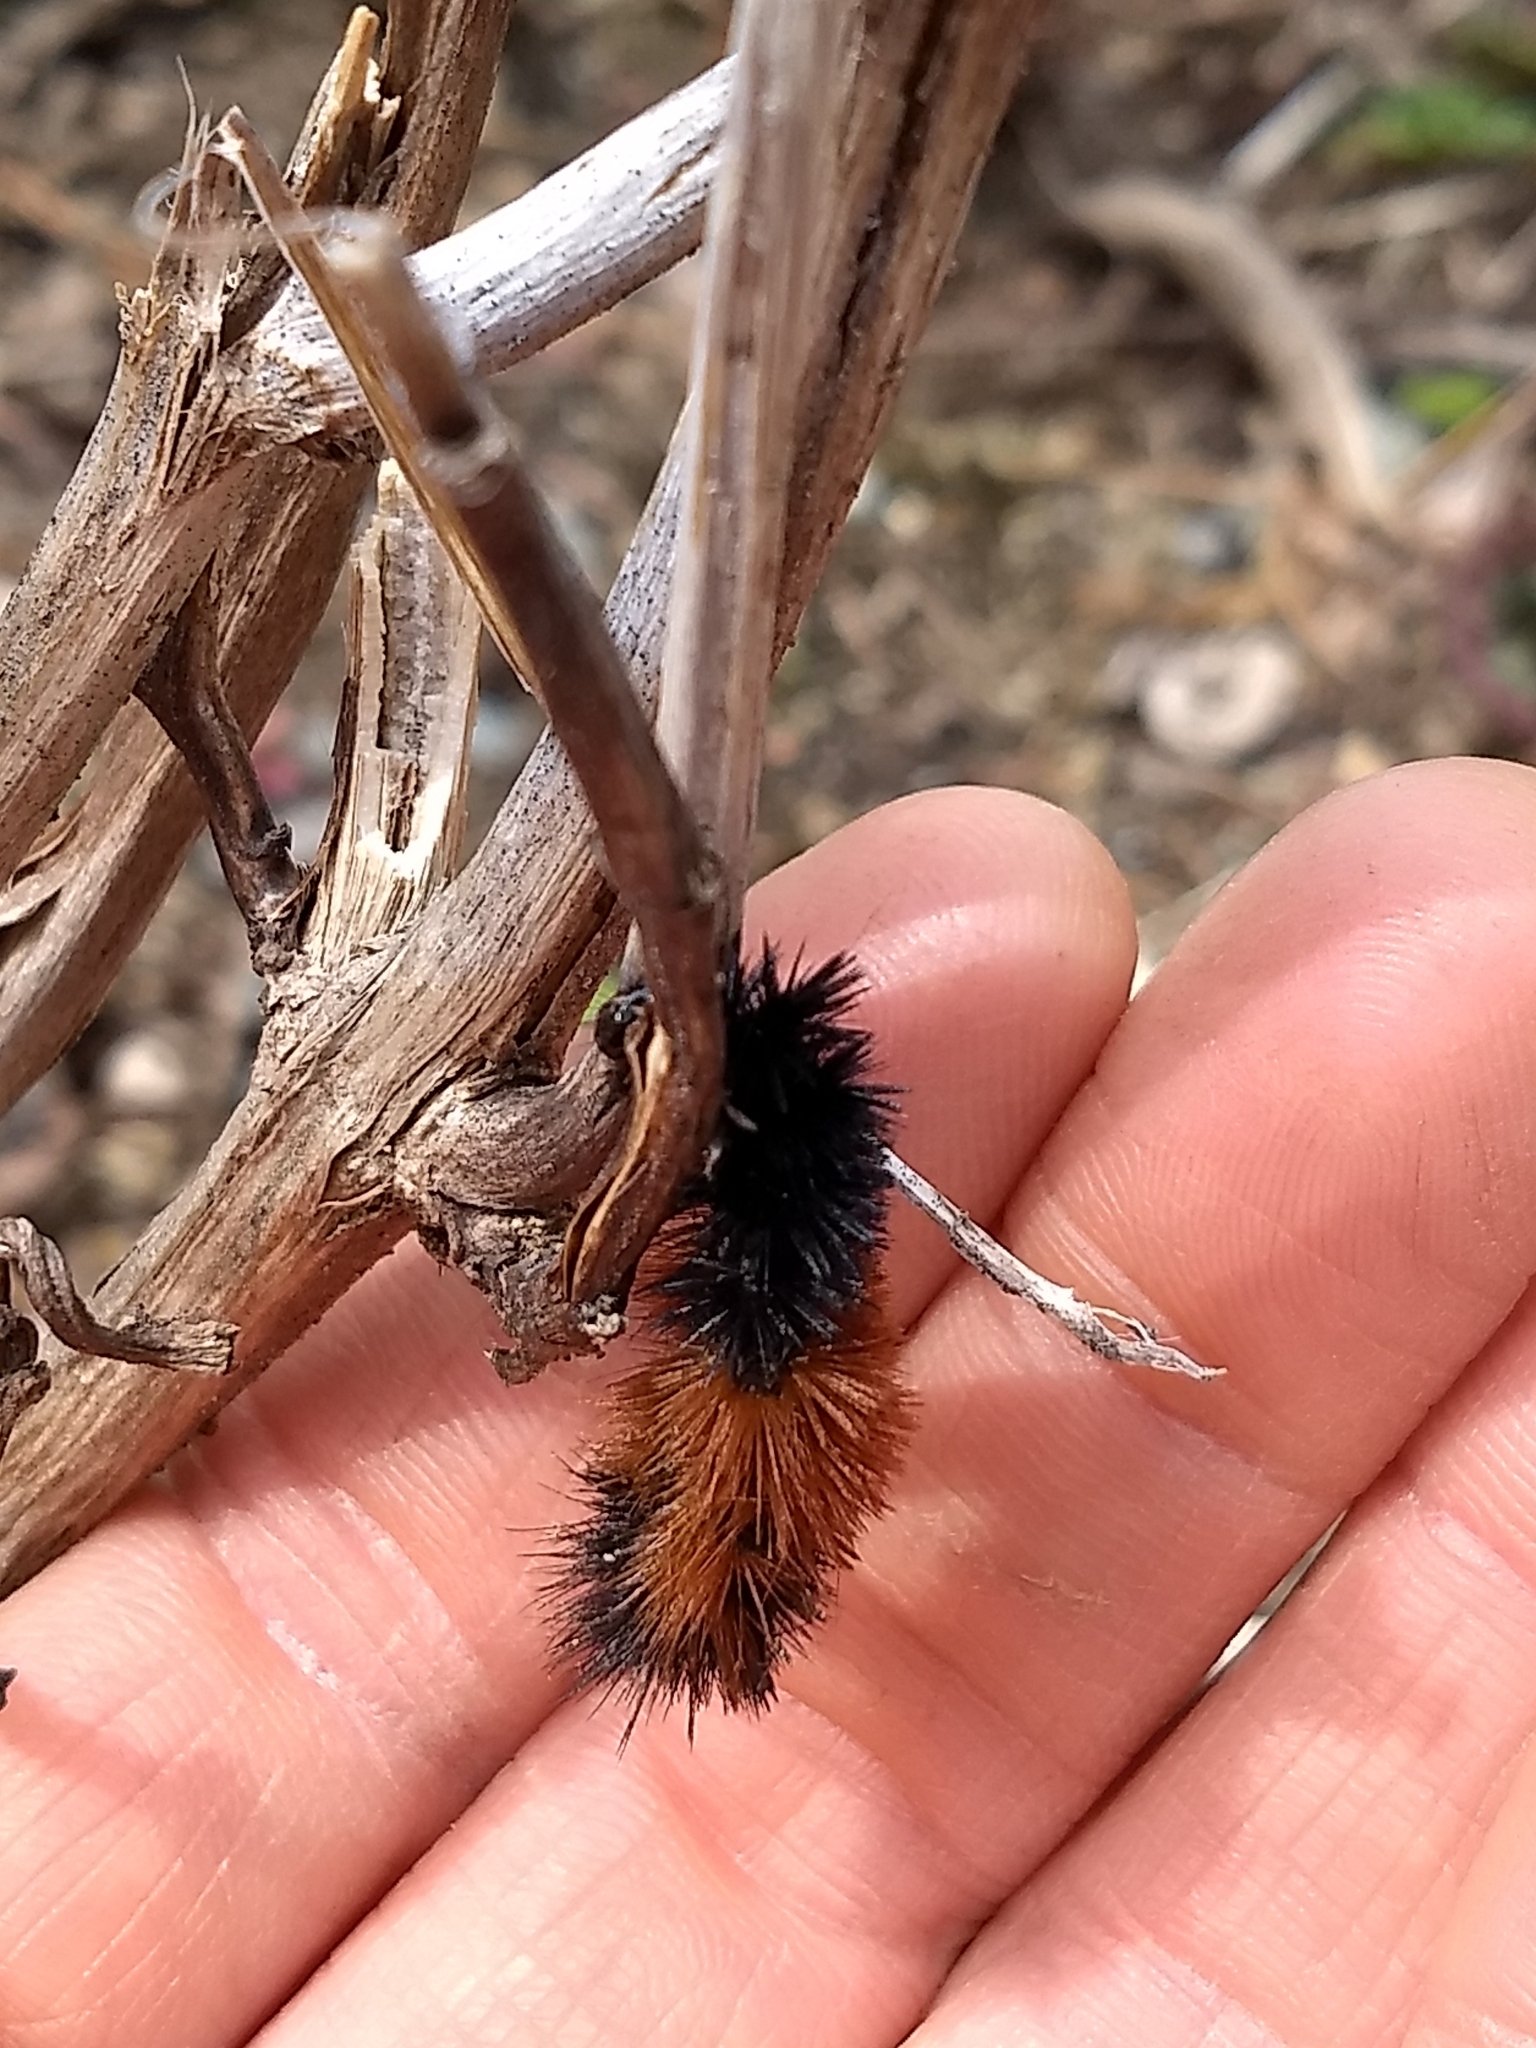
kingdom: Animalia
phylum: Arthropoda
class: Insecta
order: Lepidoptera
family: Erebidae
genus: Pyrrharctia
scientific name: Pyrrharctia isabella
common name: Isabella tiger moth
